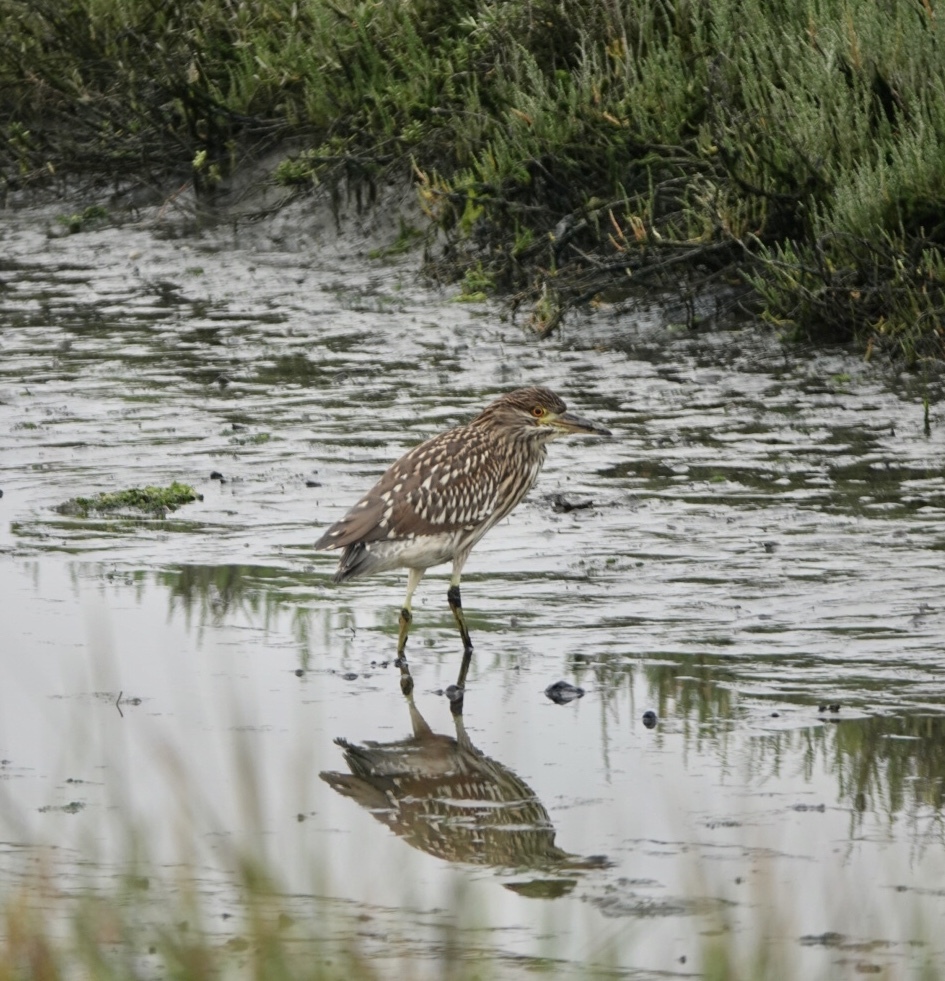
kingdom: Animalia
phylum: Chordata
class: Aves
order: Pelecaniformes
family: Ardeidae
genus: Nycticorax
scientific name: Nycticorax nycticorax
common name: Black-crowned night heron
